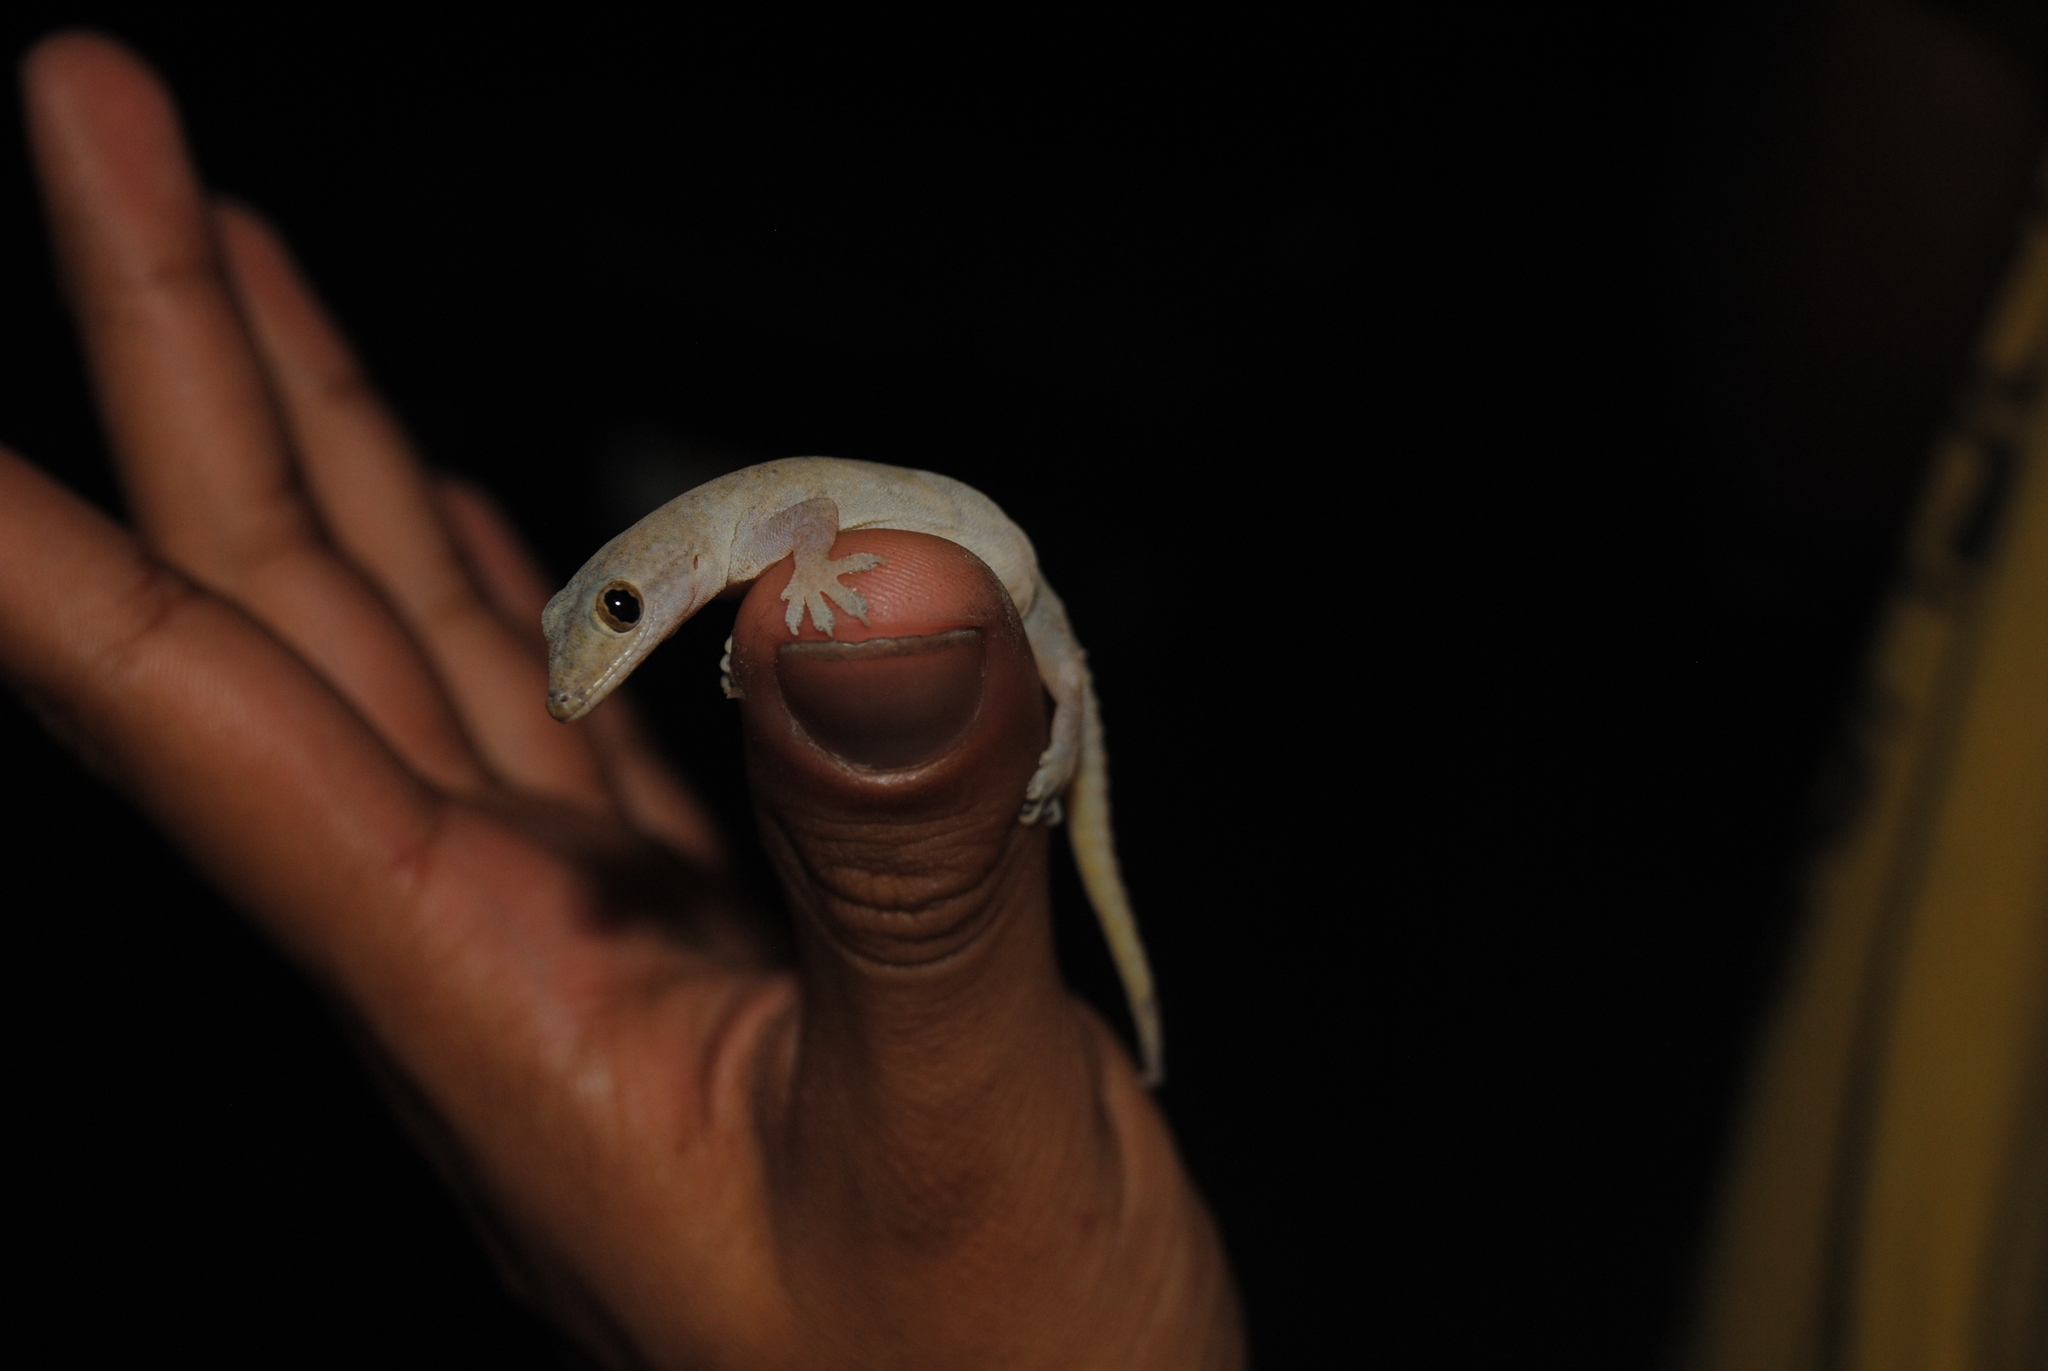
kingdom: Animalia
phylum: Chordata
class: Squamata
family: Gekkonidae
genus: Hemidactylus
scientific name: Hemidactylus frenatus
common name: Common house gecko
